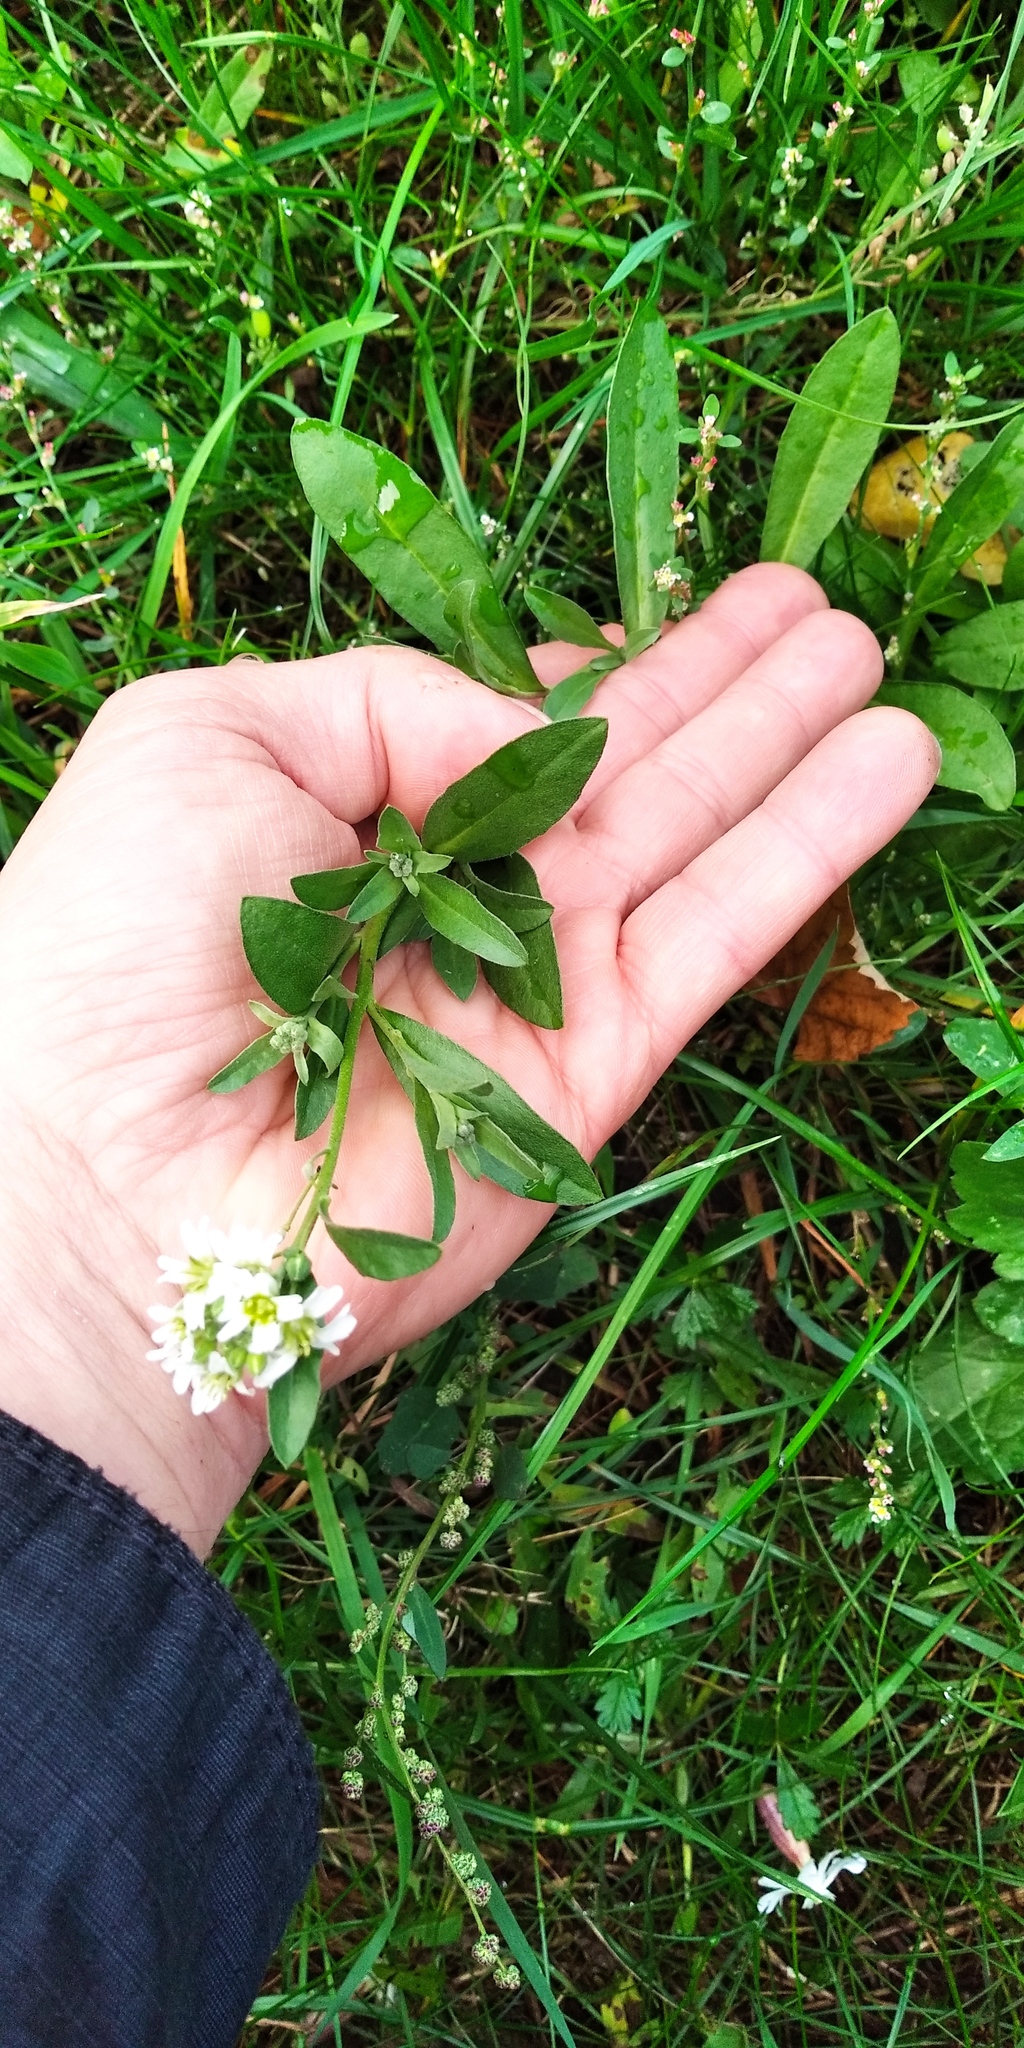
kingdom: Plantae
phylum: Tracheophyta
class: Magnoliopsida
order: Brassicales
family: Brassicaceae
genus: Berteroa
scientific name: Berteroa incana
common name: Hoary alison
